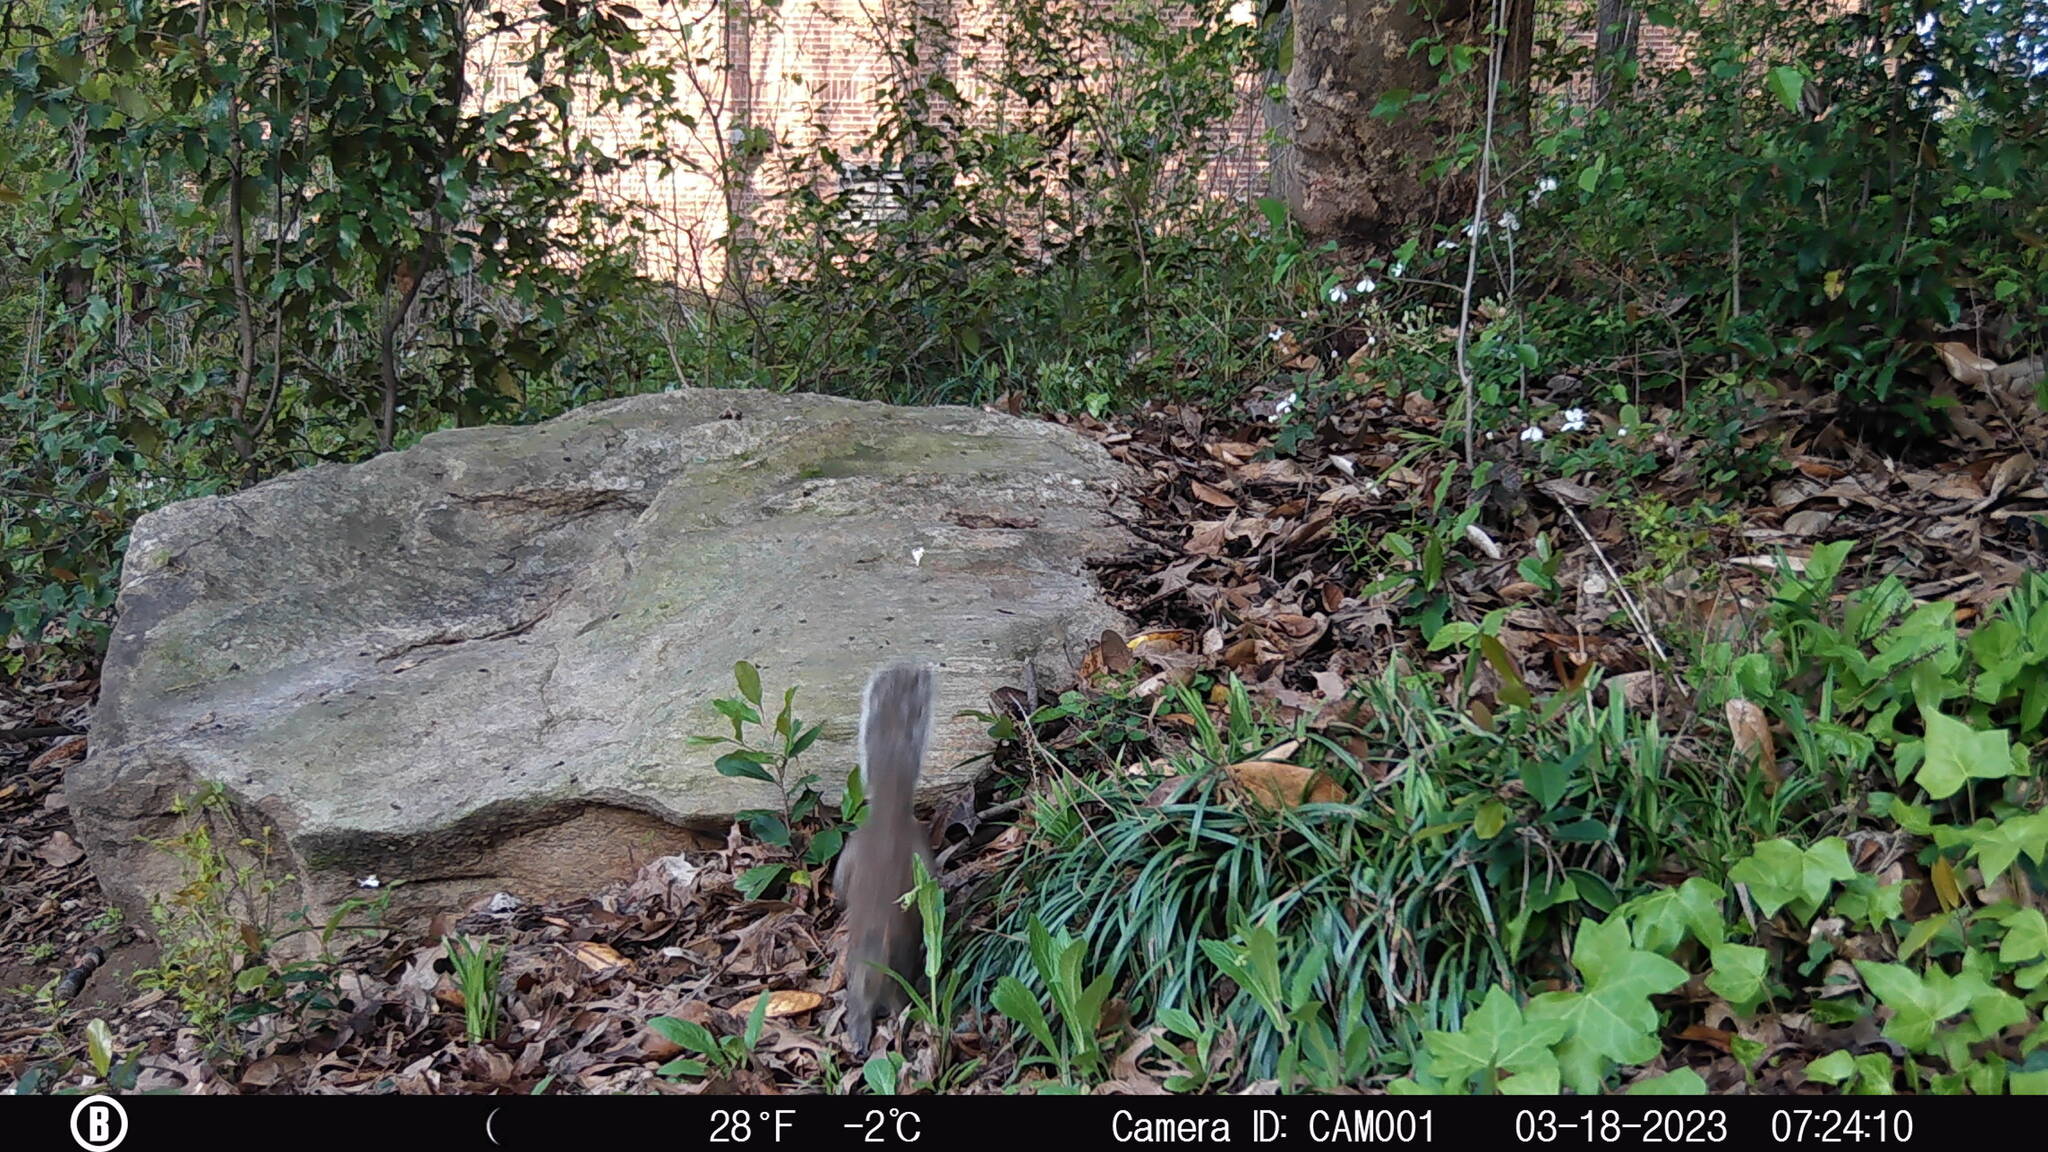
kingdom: Animalia
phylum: Chordata
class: Mammalia
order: Rodentia
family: Sciuridae
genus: Sciurus
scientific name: Sciurus carolinensis
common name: Eastern gray squirrel
